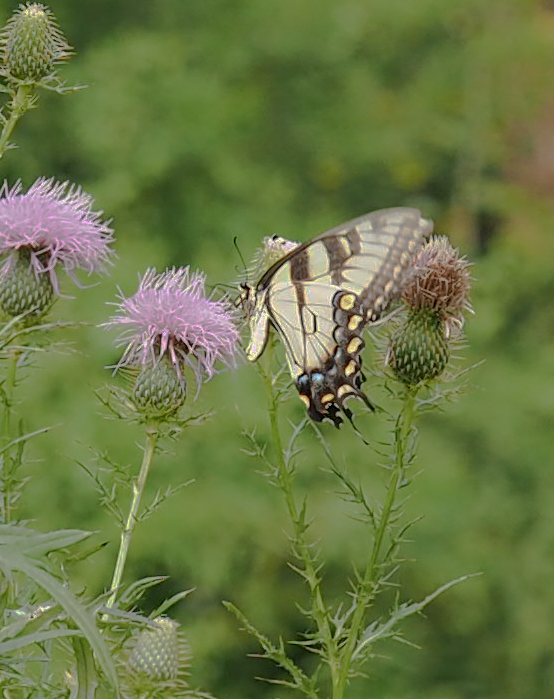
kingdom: Animalia
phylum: Arthropoda
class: Insecta
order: Lepidoptera
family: Papilionidae
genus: Papilio
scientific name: Papilio glaucus
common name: Tiger swallowtail
